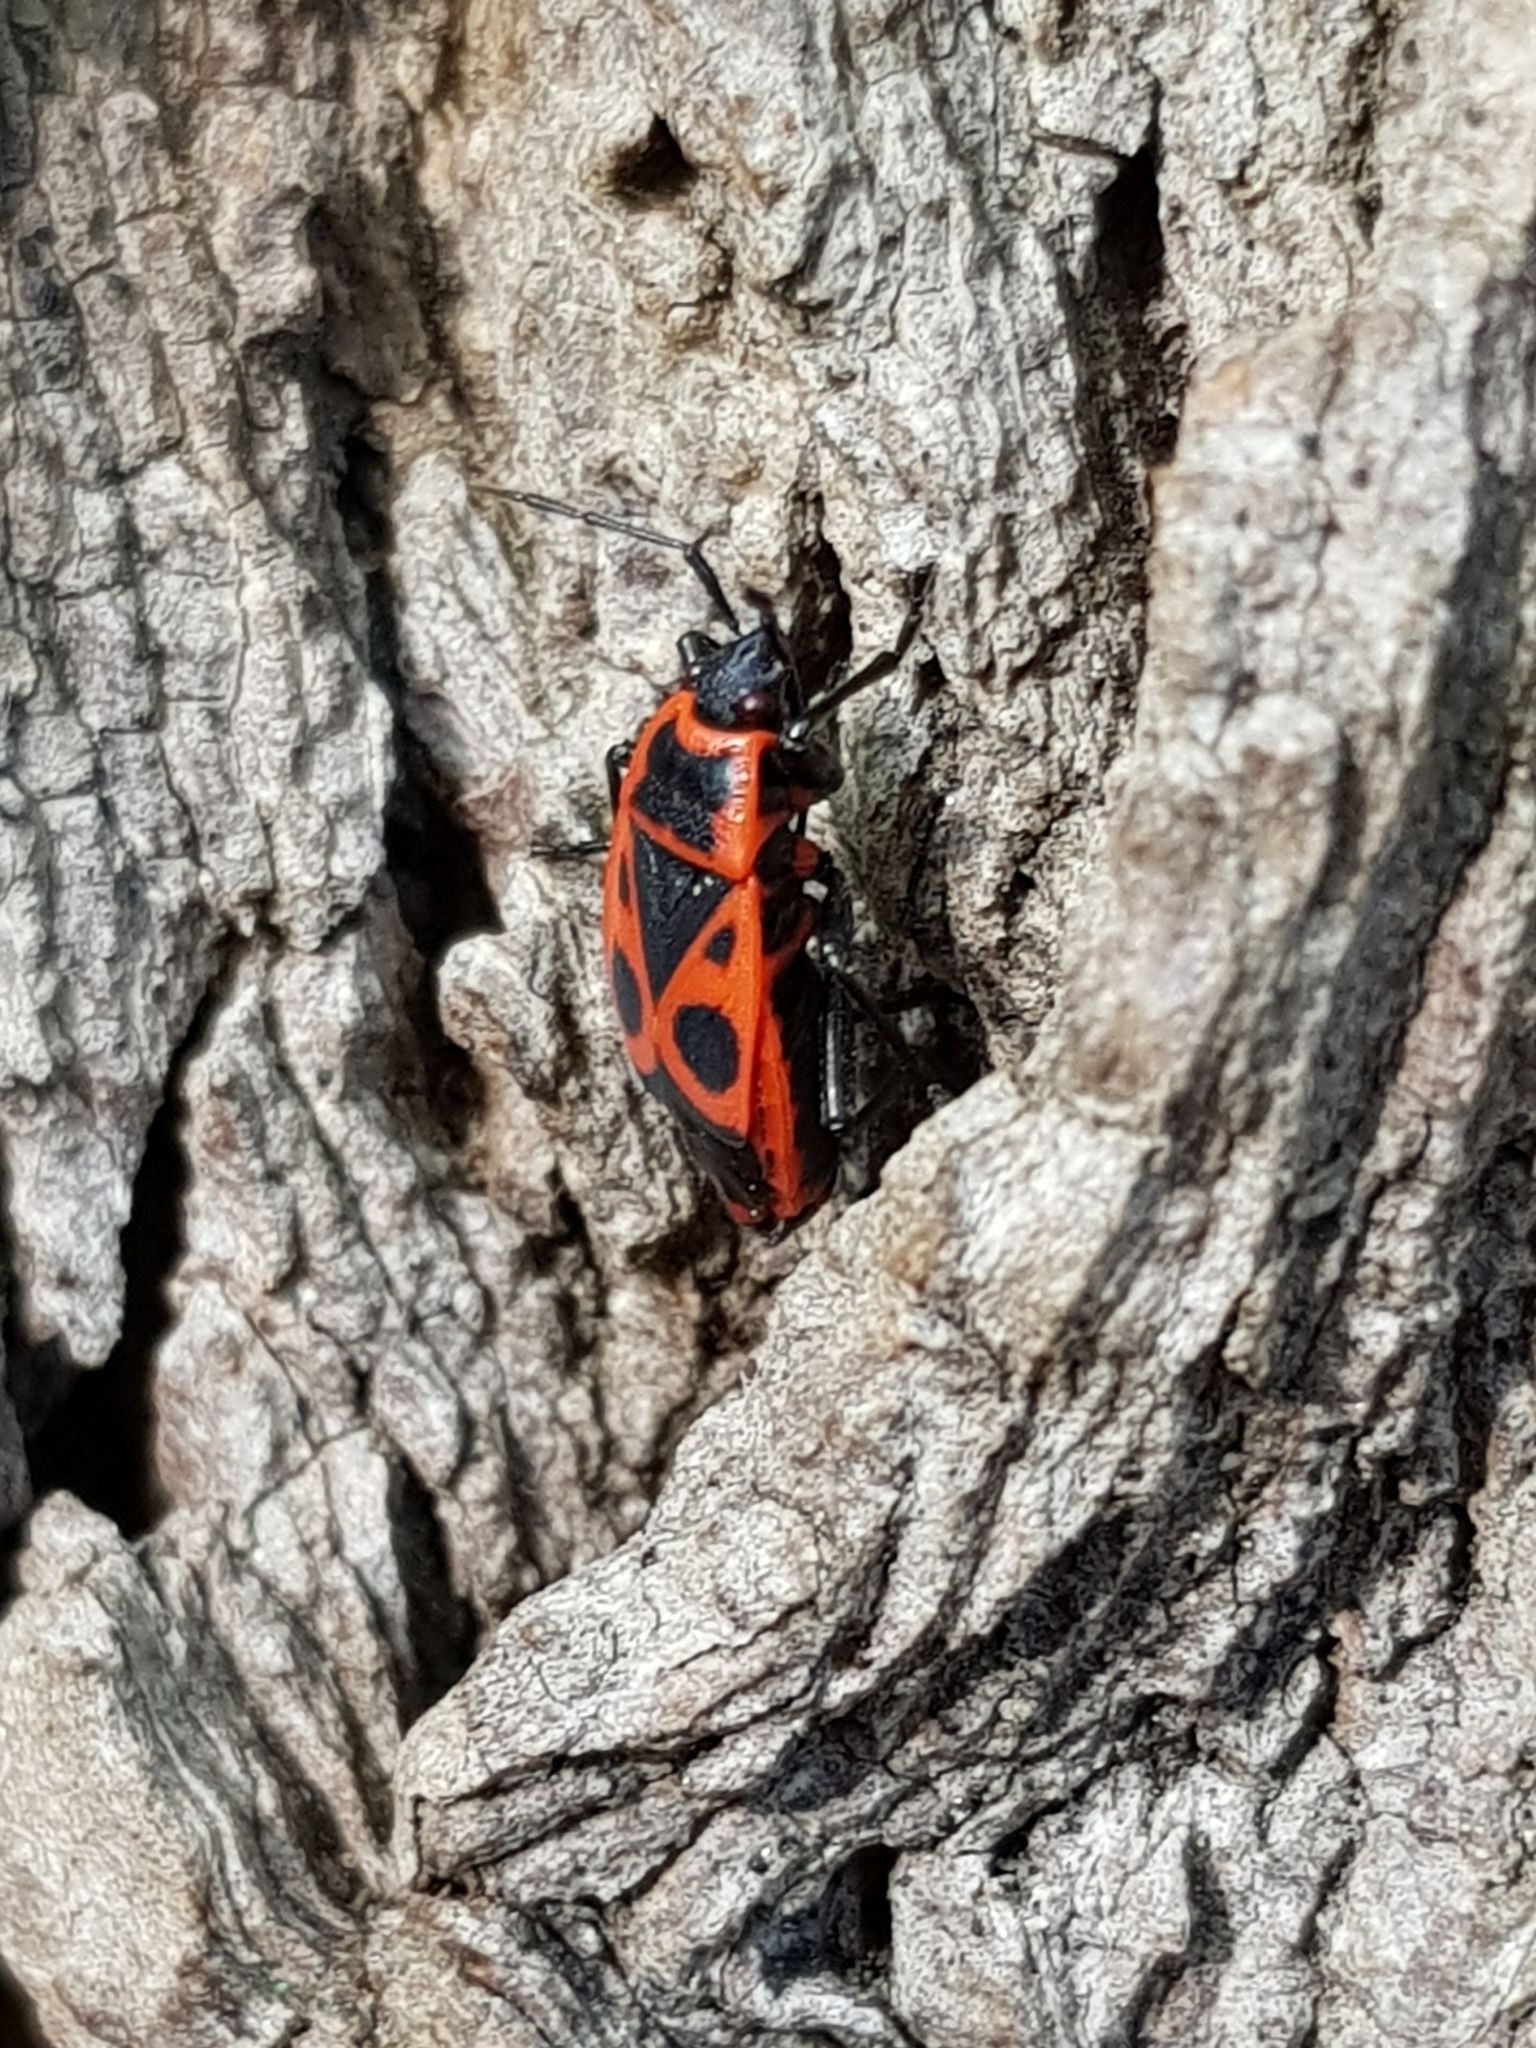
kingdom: Animalia
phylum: Arthropoda
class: Insecta
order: Hemiptera
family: Pyrrhocoridae
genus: Pyrrhocoris
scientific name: Pyrrhocoris apterus
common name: Firebug
